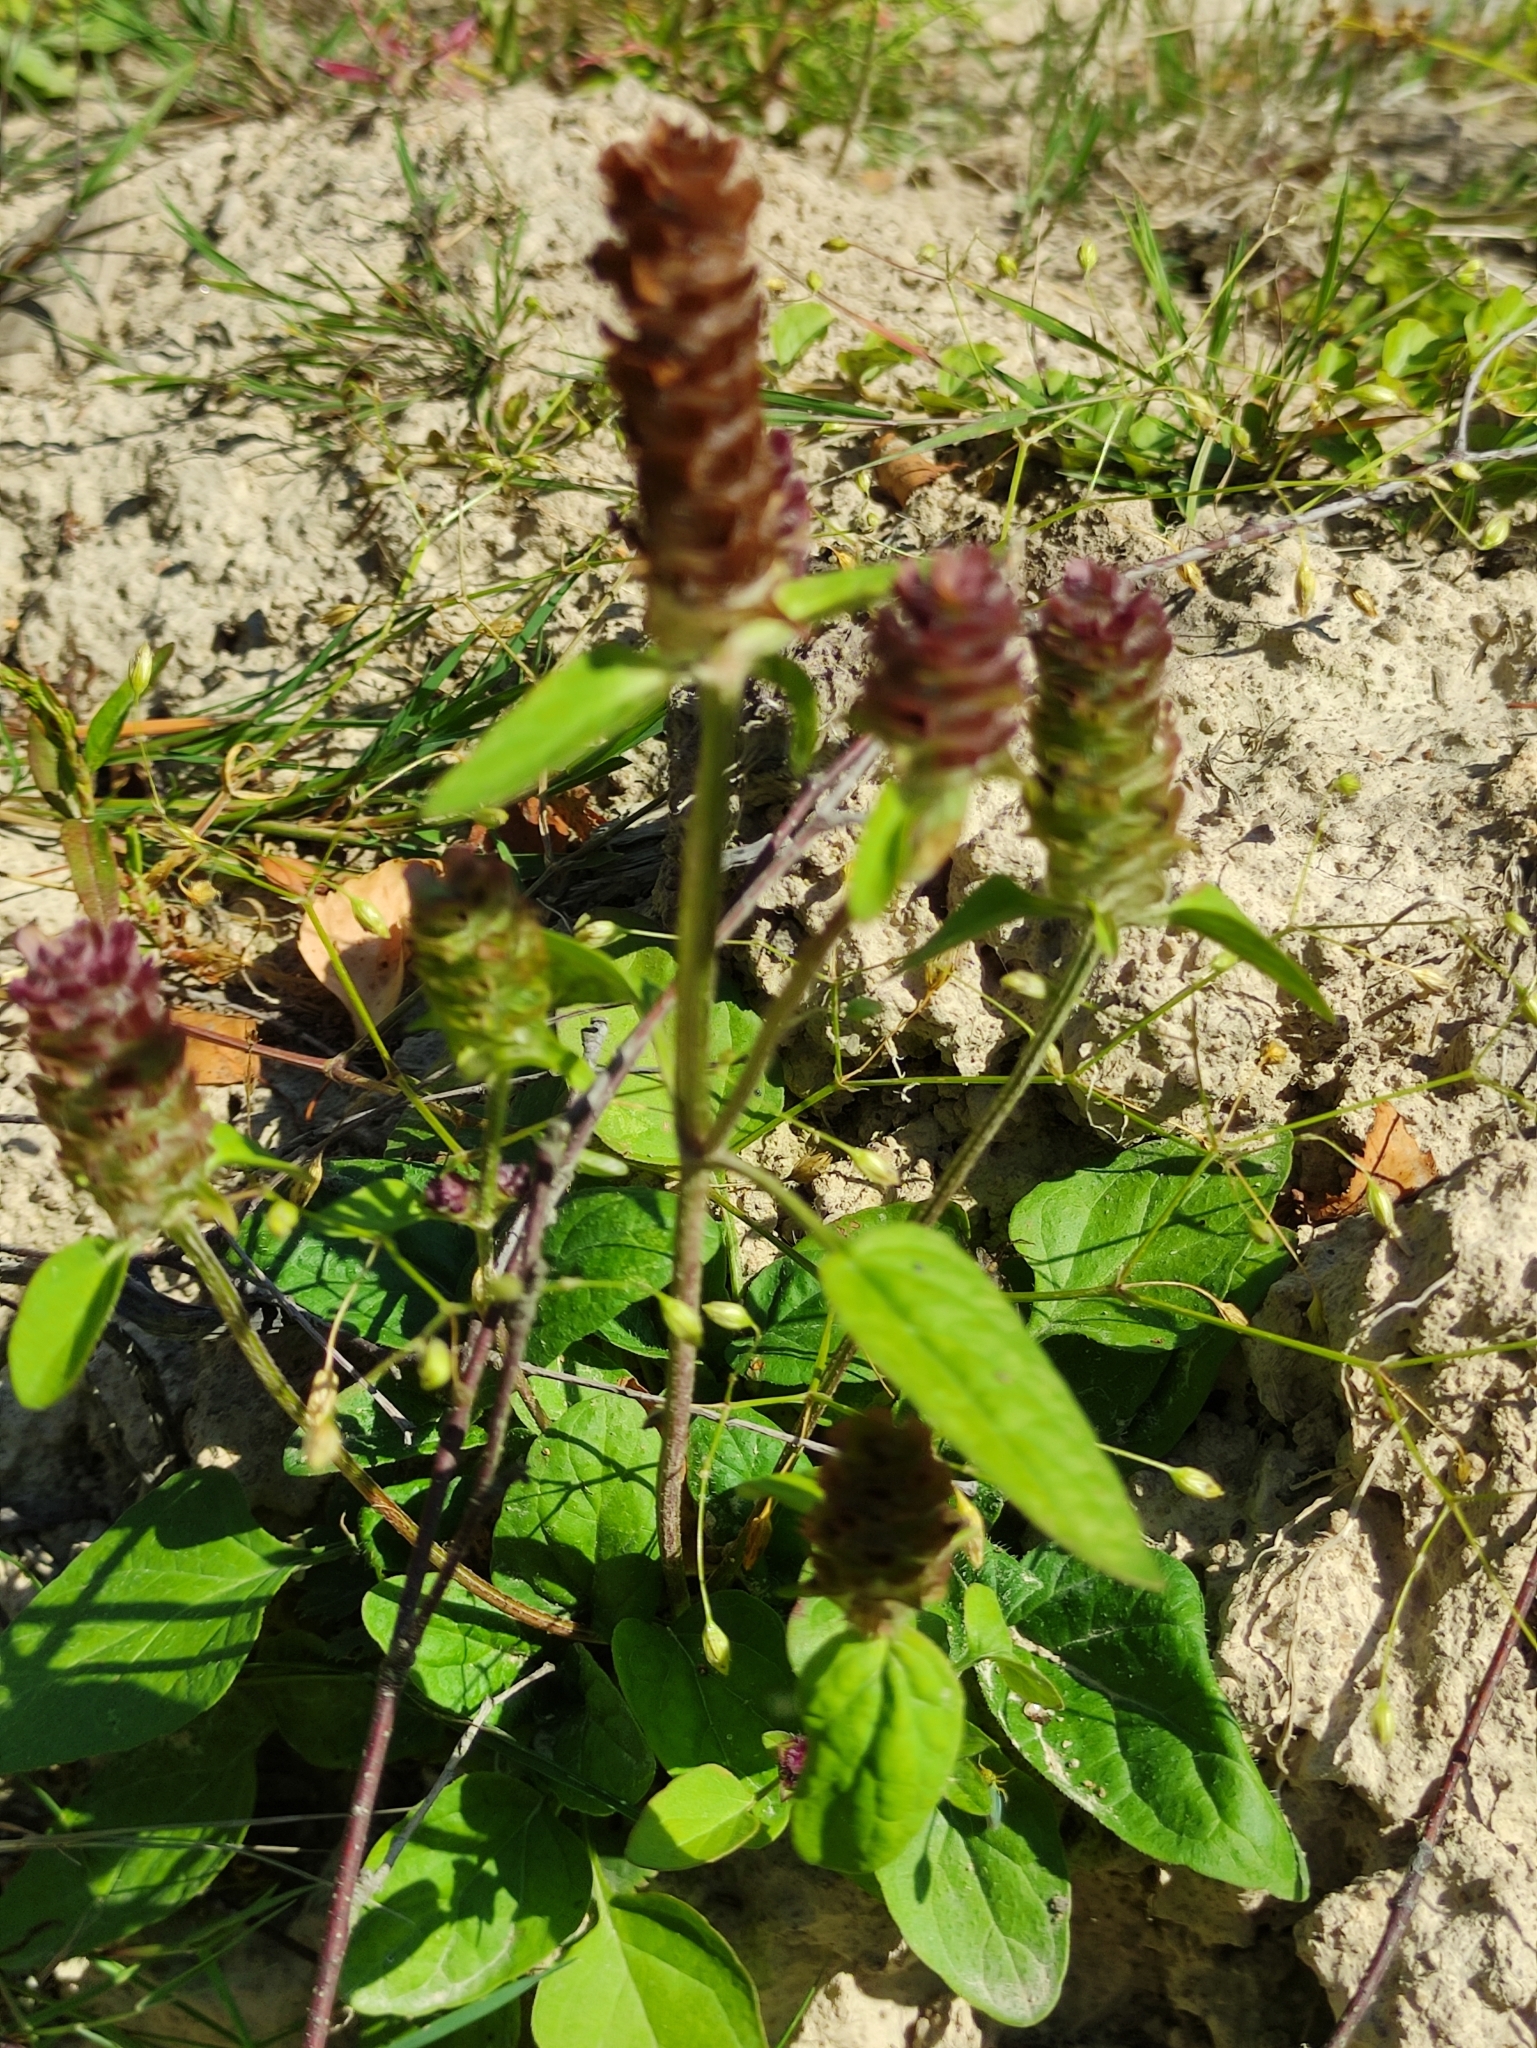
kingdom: Plantae
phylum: Tracheophyta
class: Magnoliopsida
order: Lamiales
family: Lamiaceae
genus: Prunella
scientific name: Prunella vulgaris
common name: Heal-all
